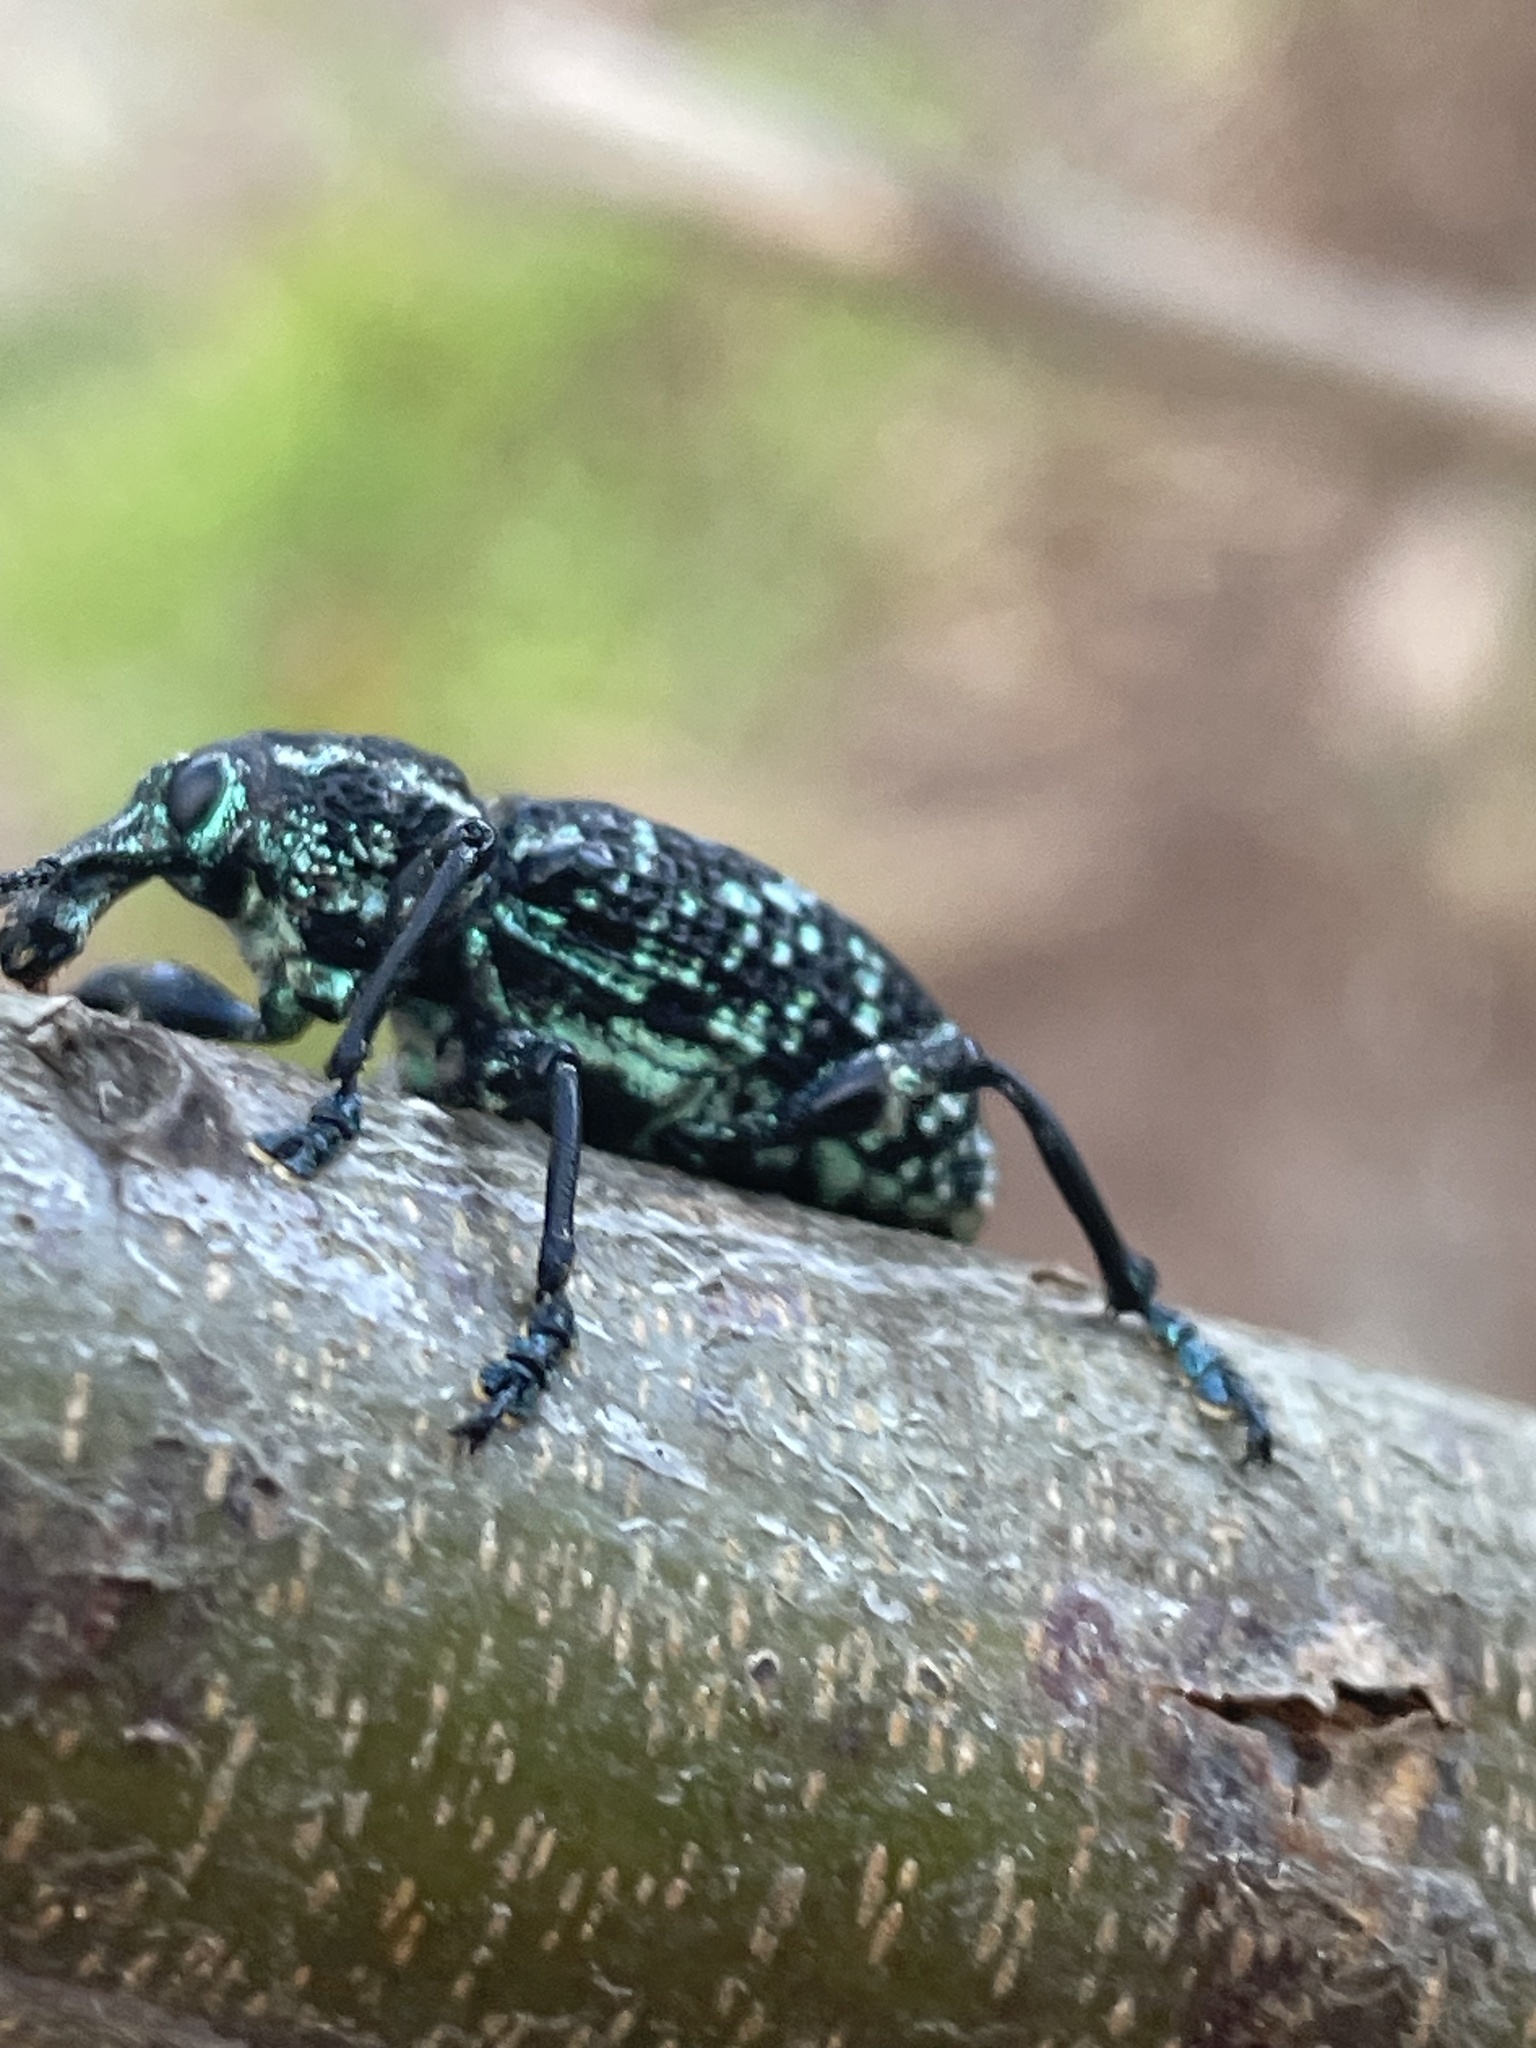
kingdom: Animalia
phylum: Arthropoda
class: Insecta
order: Coleoptera
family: Curculionidae
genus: Chrysolopus
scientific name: Chrysolopus spectabilis
